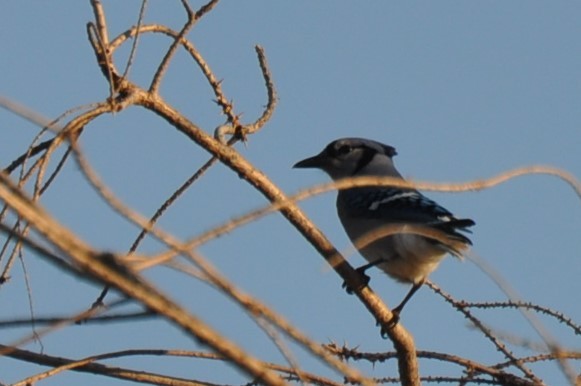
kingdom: Animalia
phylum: Chordata
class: Aves
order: Passeriformes
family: Corvidae
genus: Cyanocitta
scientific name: Cyanocitta cristata
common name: Blue jay
